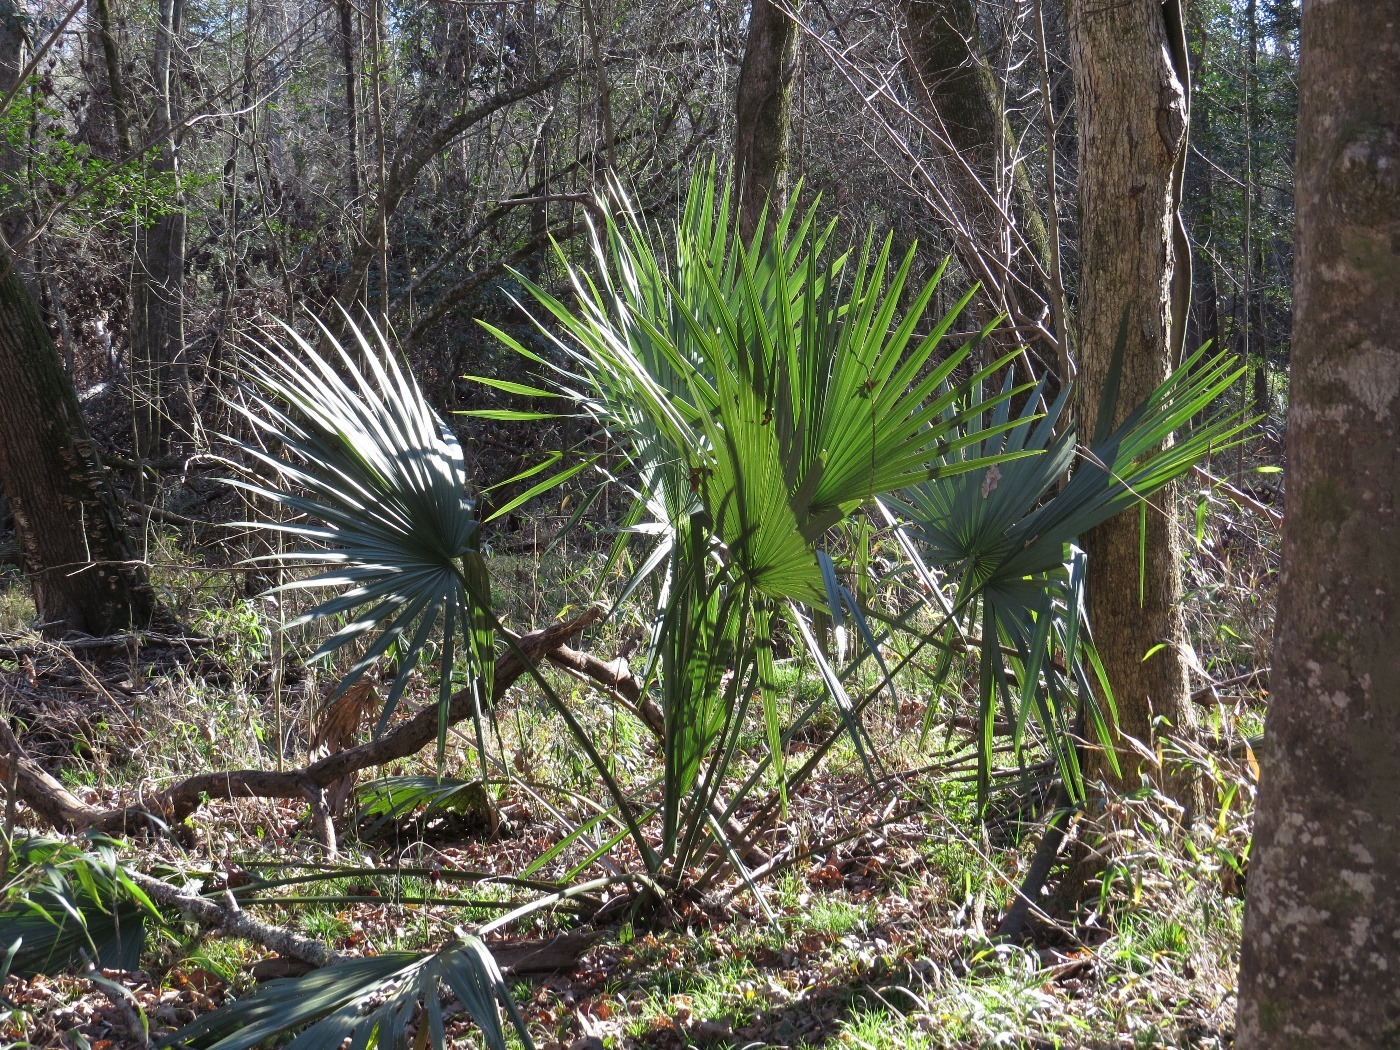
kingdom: Plantae
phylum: Tracheophyta
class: Liliopsida
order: Arecales
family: Arecaceae
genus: Sabal
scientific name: Sabal minor
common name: Dwarf palmetto
